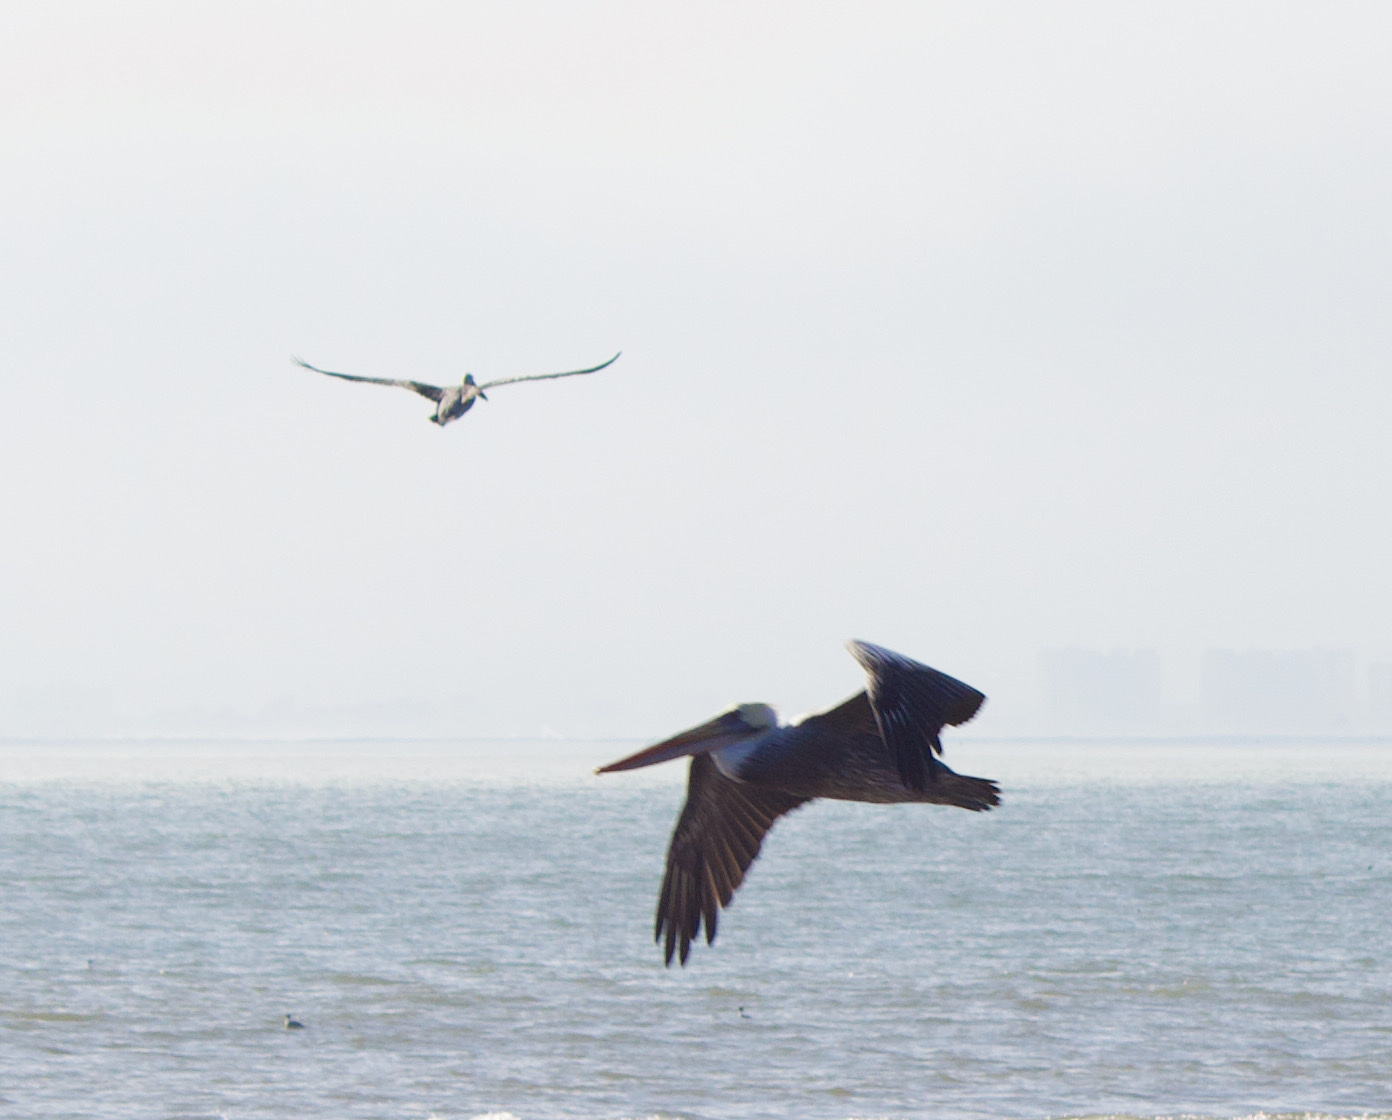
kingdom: Animalia
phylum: Chordata
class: Aves
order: Pelecaniformes
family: Pelecanidae
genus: Pelecanus
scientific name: Pelecanus thagus
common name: Peruvian pelican
